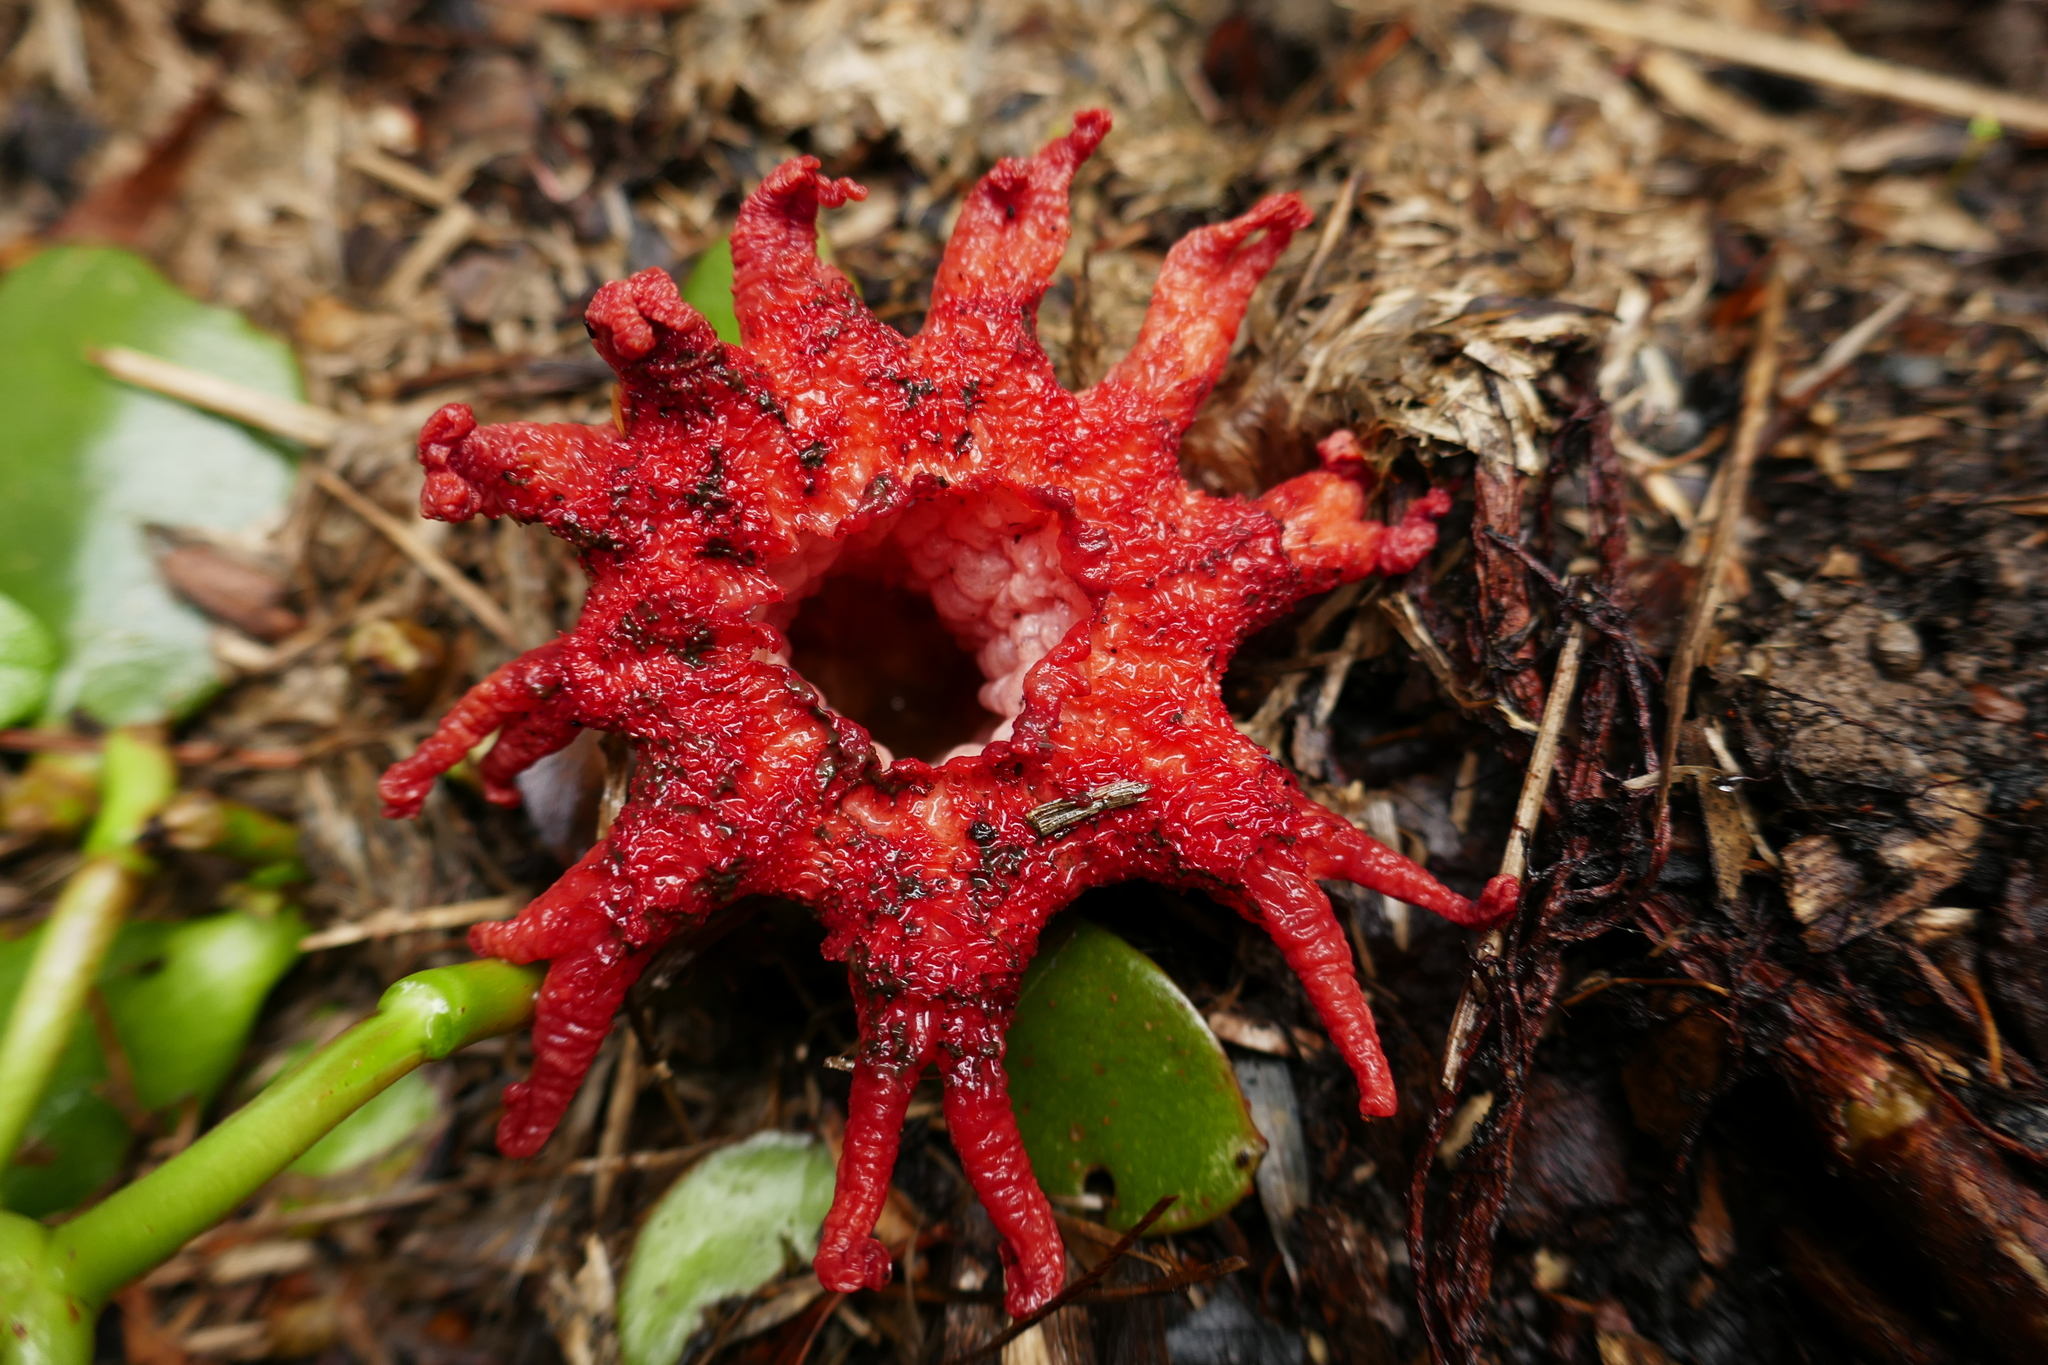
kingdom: Fungi
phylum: Basidiomycota
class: Agaricomycetes
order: Phallales
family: Phallaceae
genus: Aseroe
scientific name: Aseroe rubra
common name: Starfish fungus
